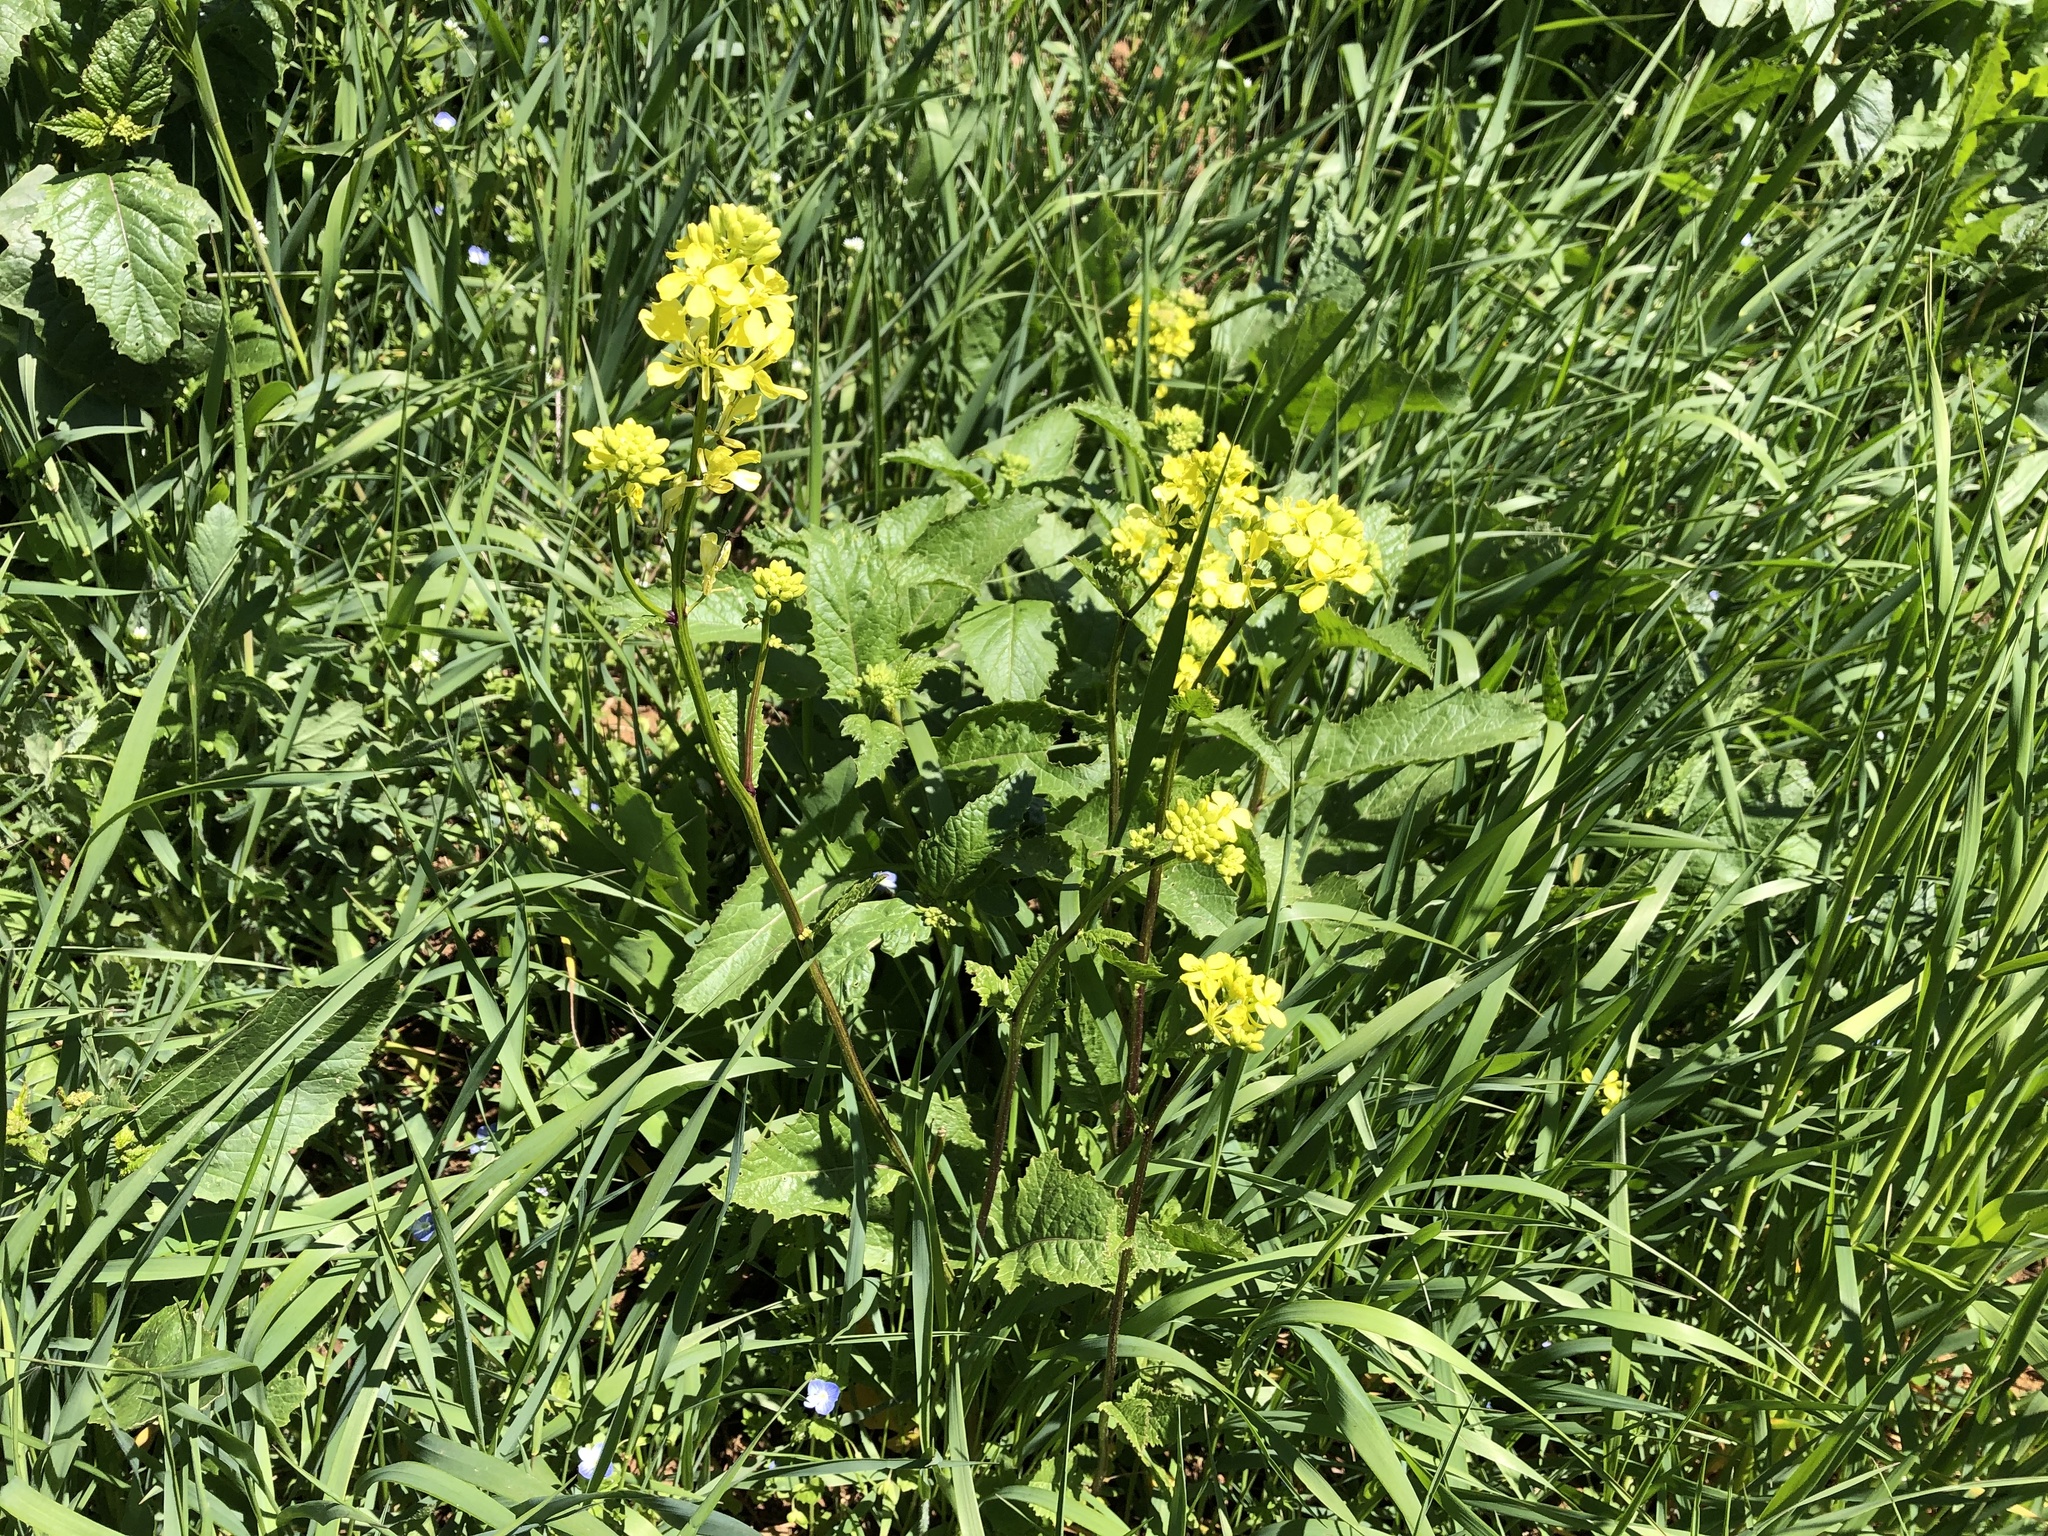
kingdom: Plantae
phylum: Tracheophyta
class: Magnoliopsida
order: Brassicales
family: Brassicaceae
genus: Sinapis
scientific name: Sinapis arvensis
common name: Charlock
